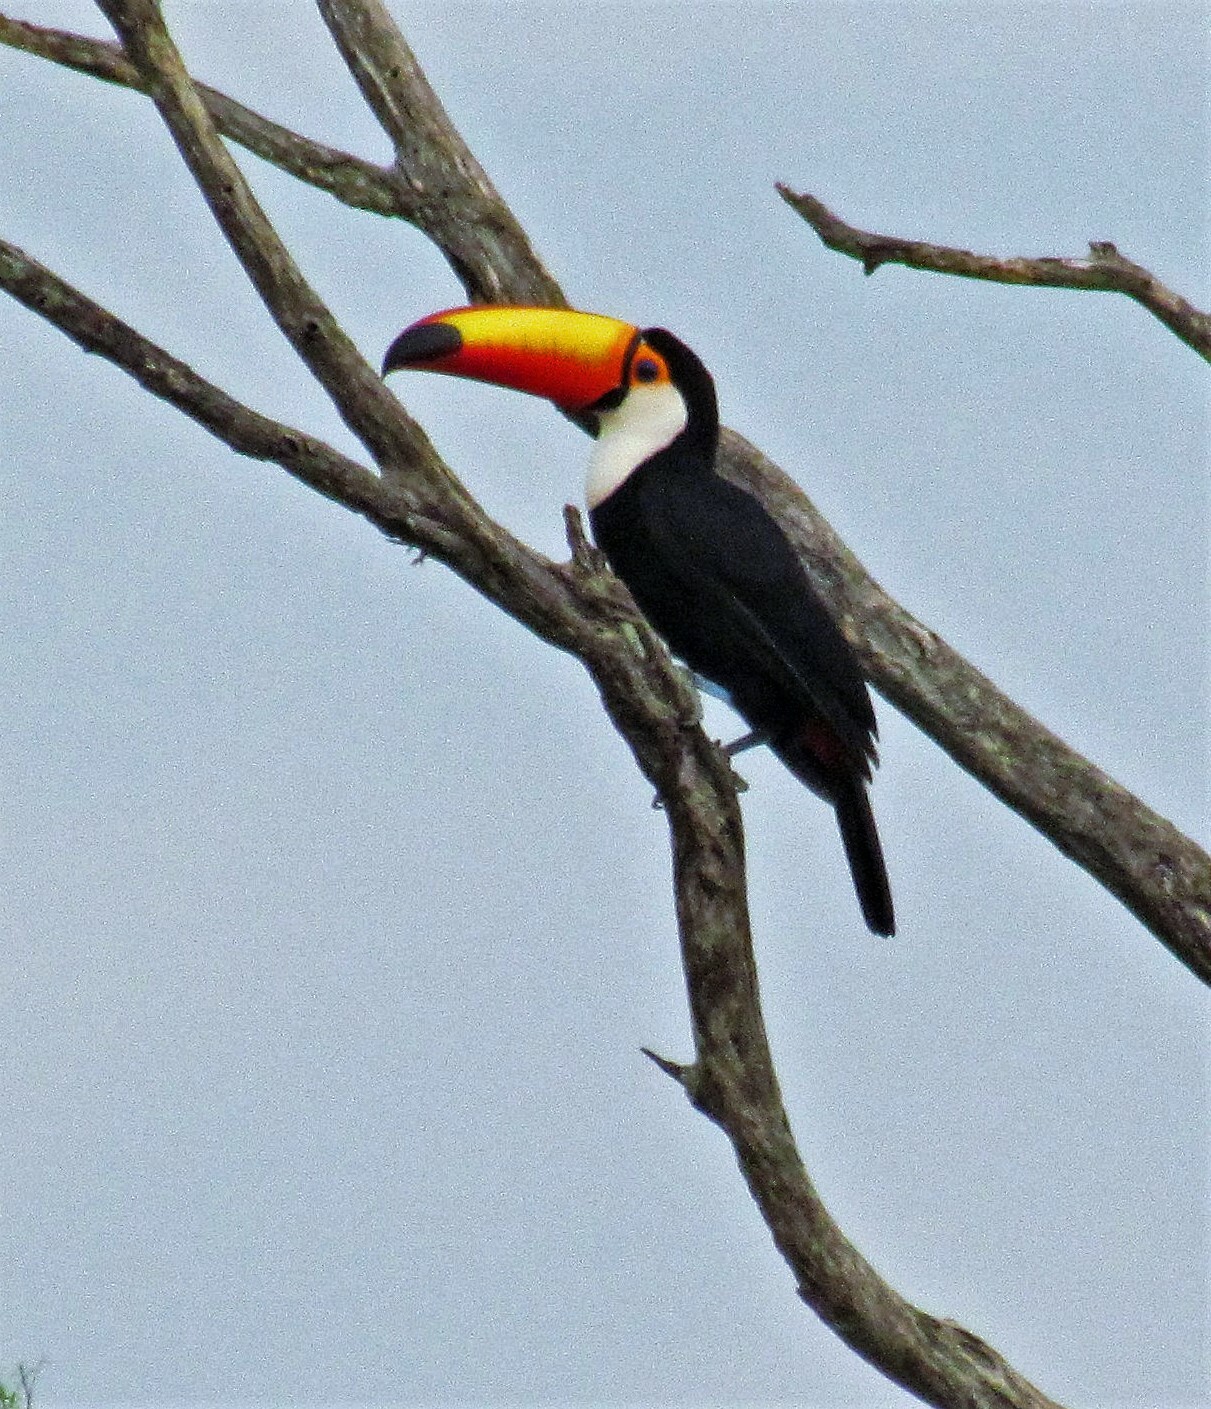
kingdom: Animalia
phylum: Chordata
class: Aves
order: Piciformes
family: Ramphastidae
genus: Ramphastos
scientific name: Ramphastos toco
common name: Toco toucan
